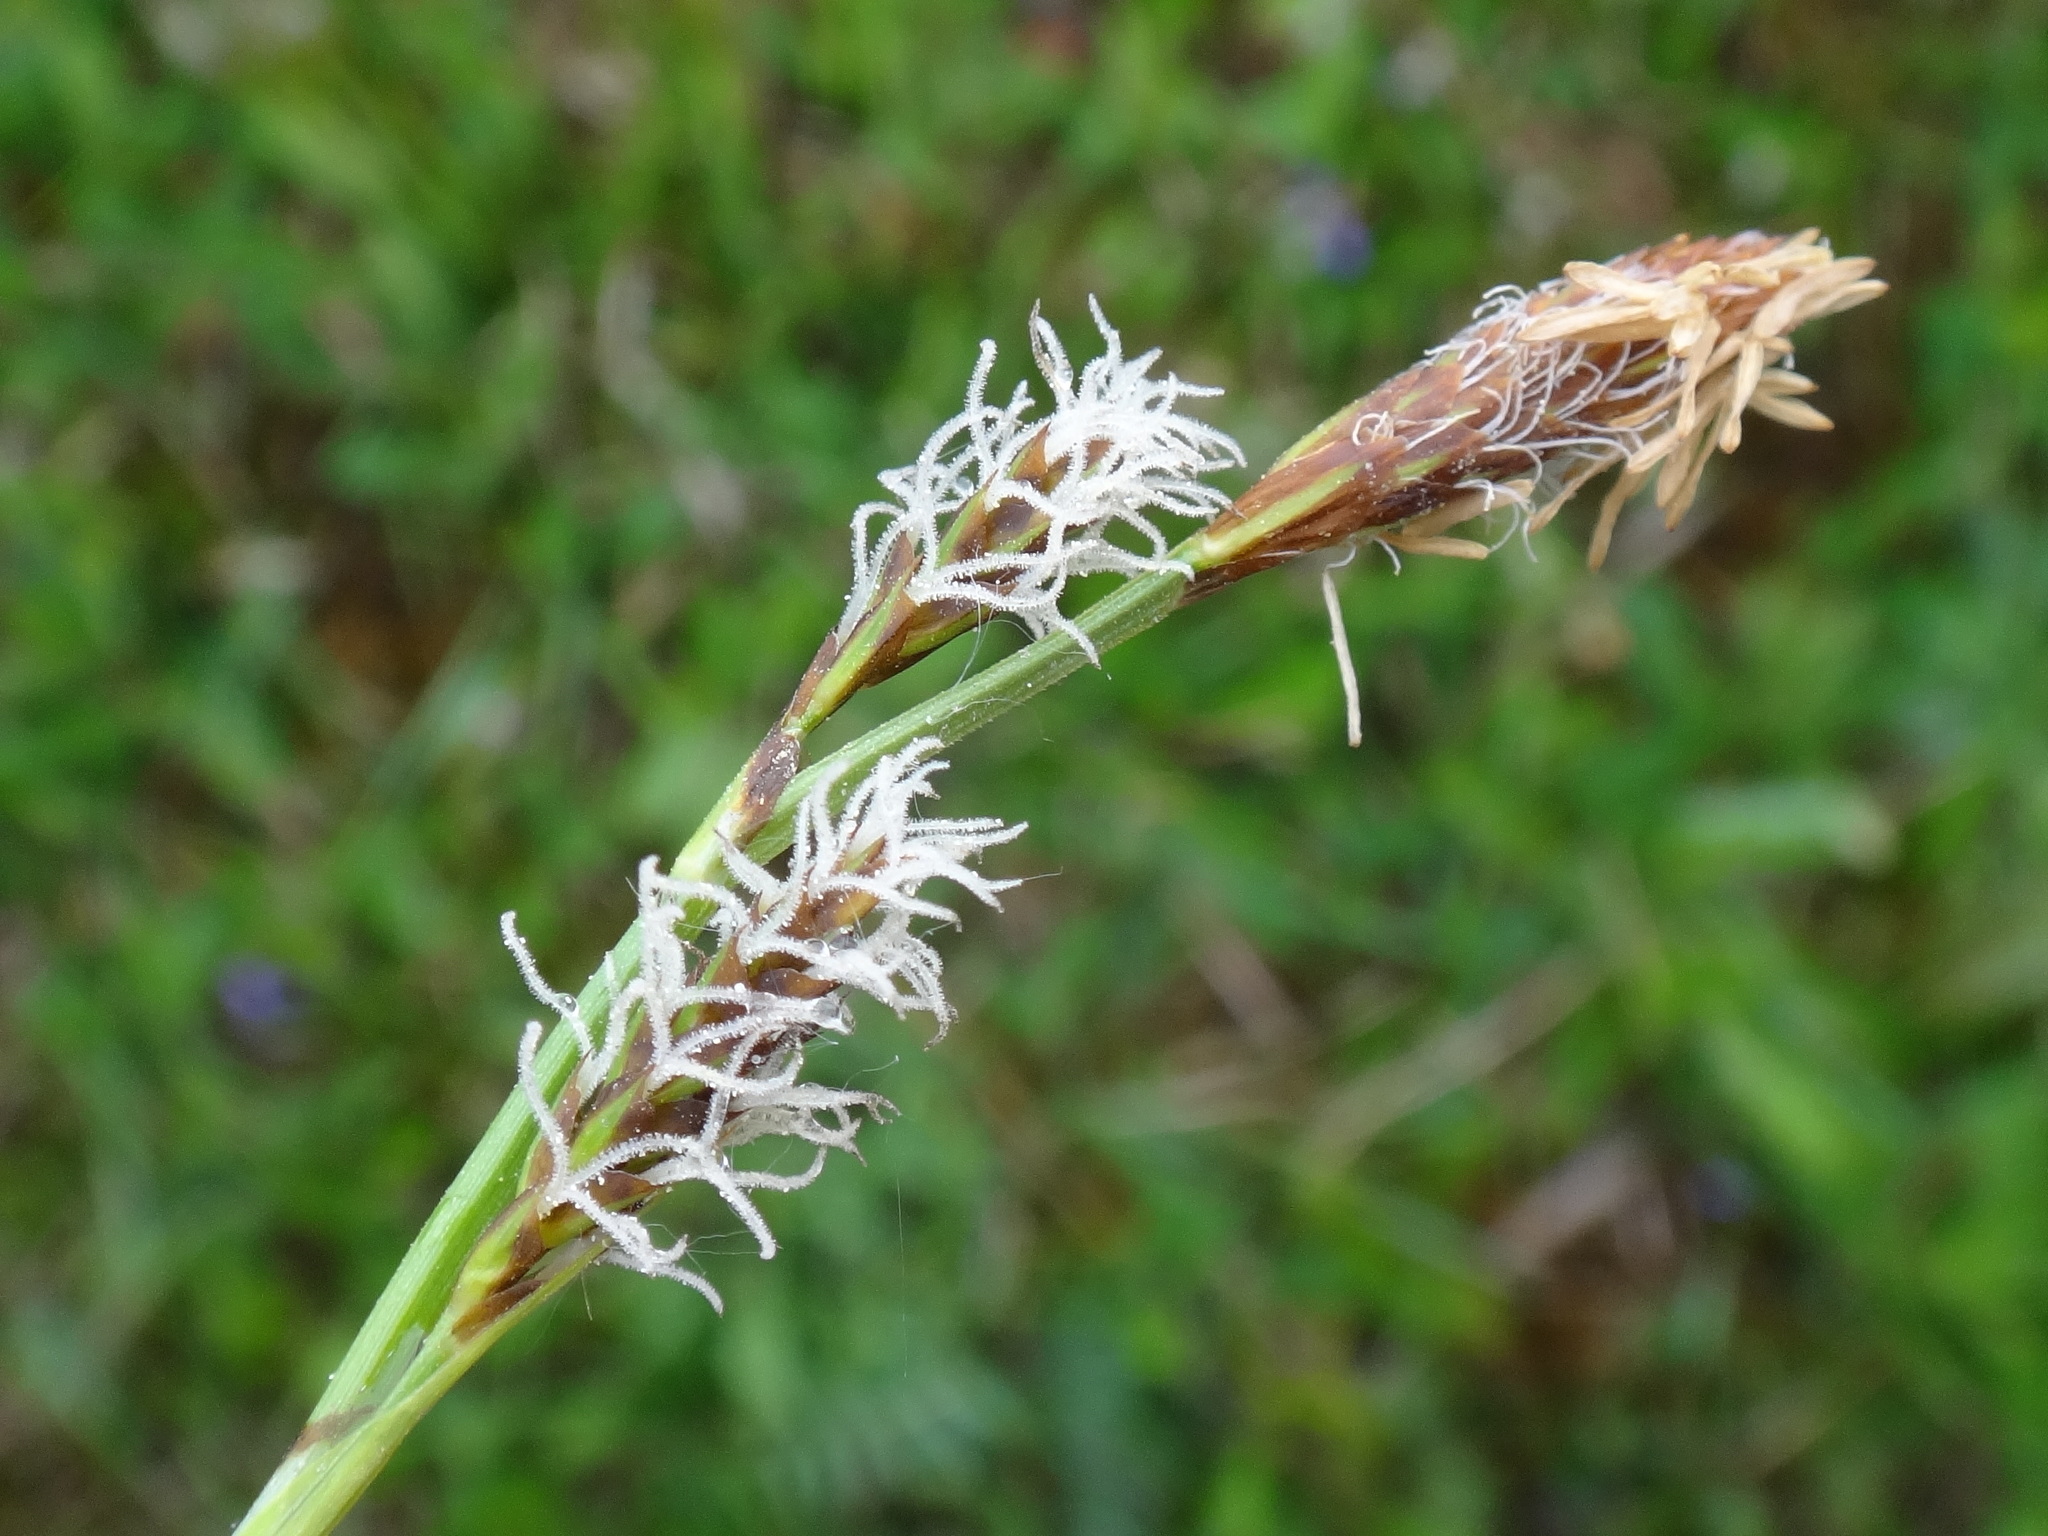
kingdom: Plantae
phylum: Tracheophyta
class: Liliopsida
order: Poales
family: Cyperaceae
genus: Carex
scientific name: Carex caryophyllea
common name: Spring sedge
